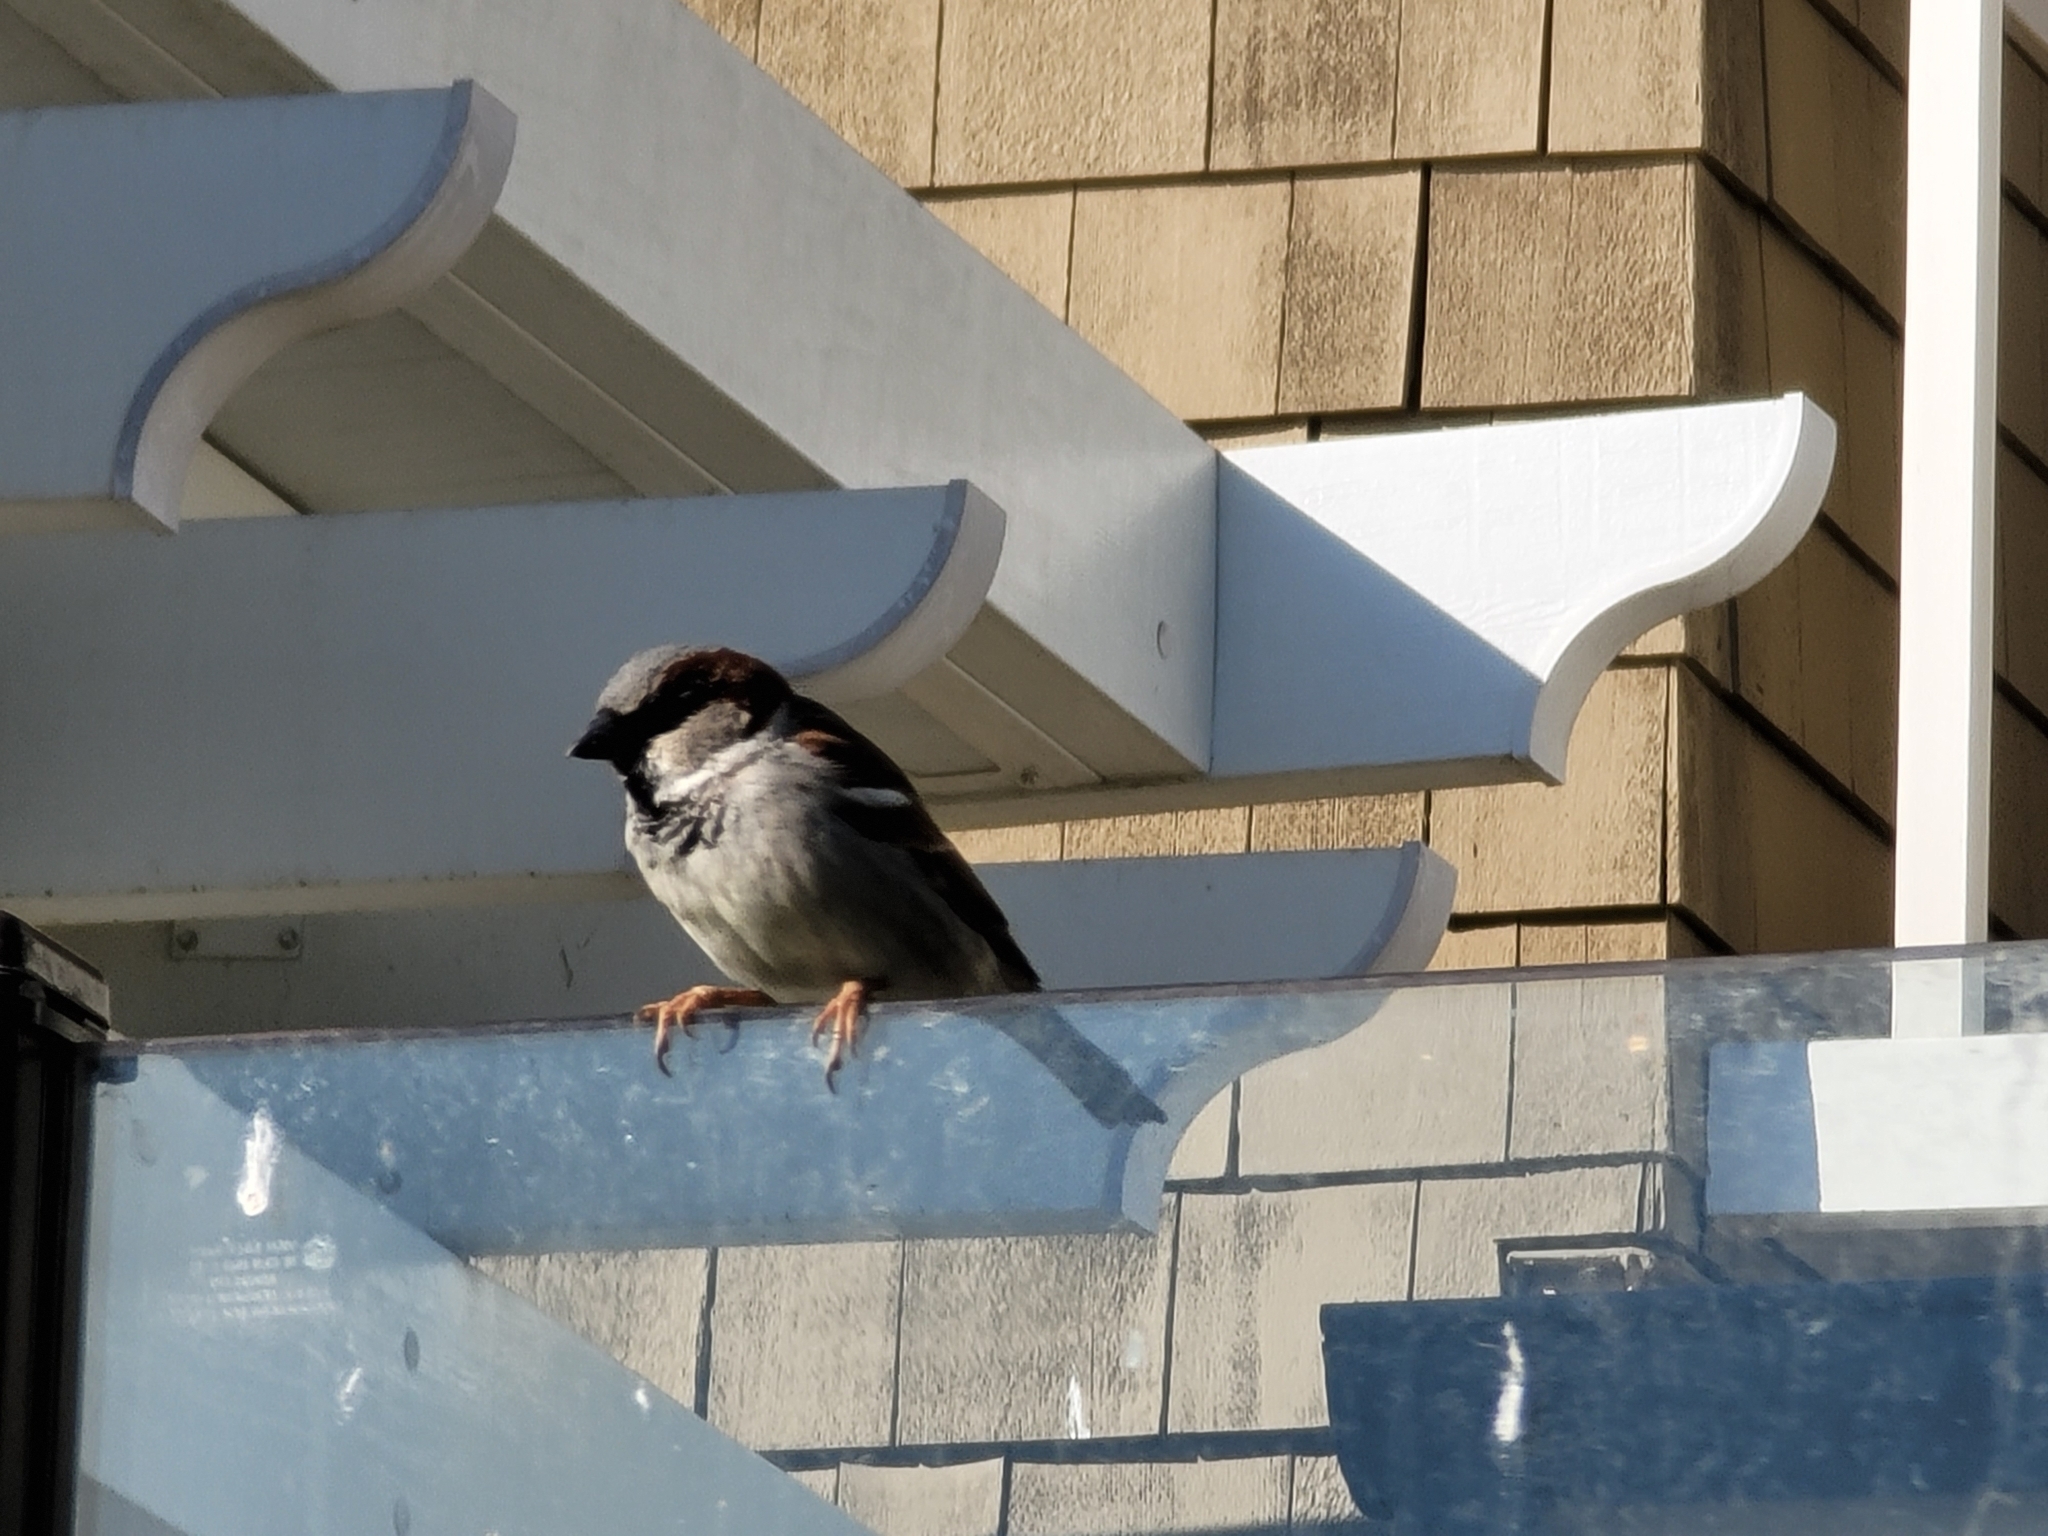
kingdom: Animalia
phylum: Chordata
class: Aves
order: Passeriformes
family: Passeridae
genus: Passer
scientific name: Passer domesticus
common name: House sparrow
